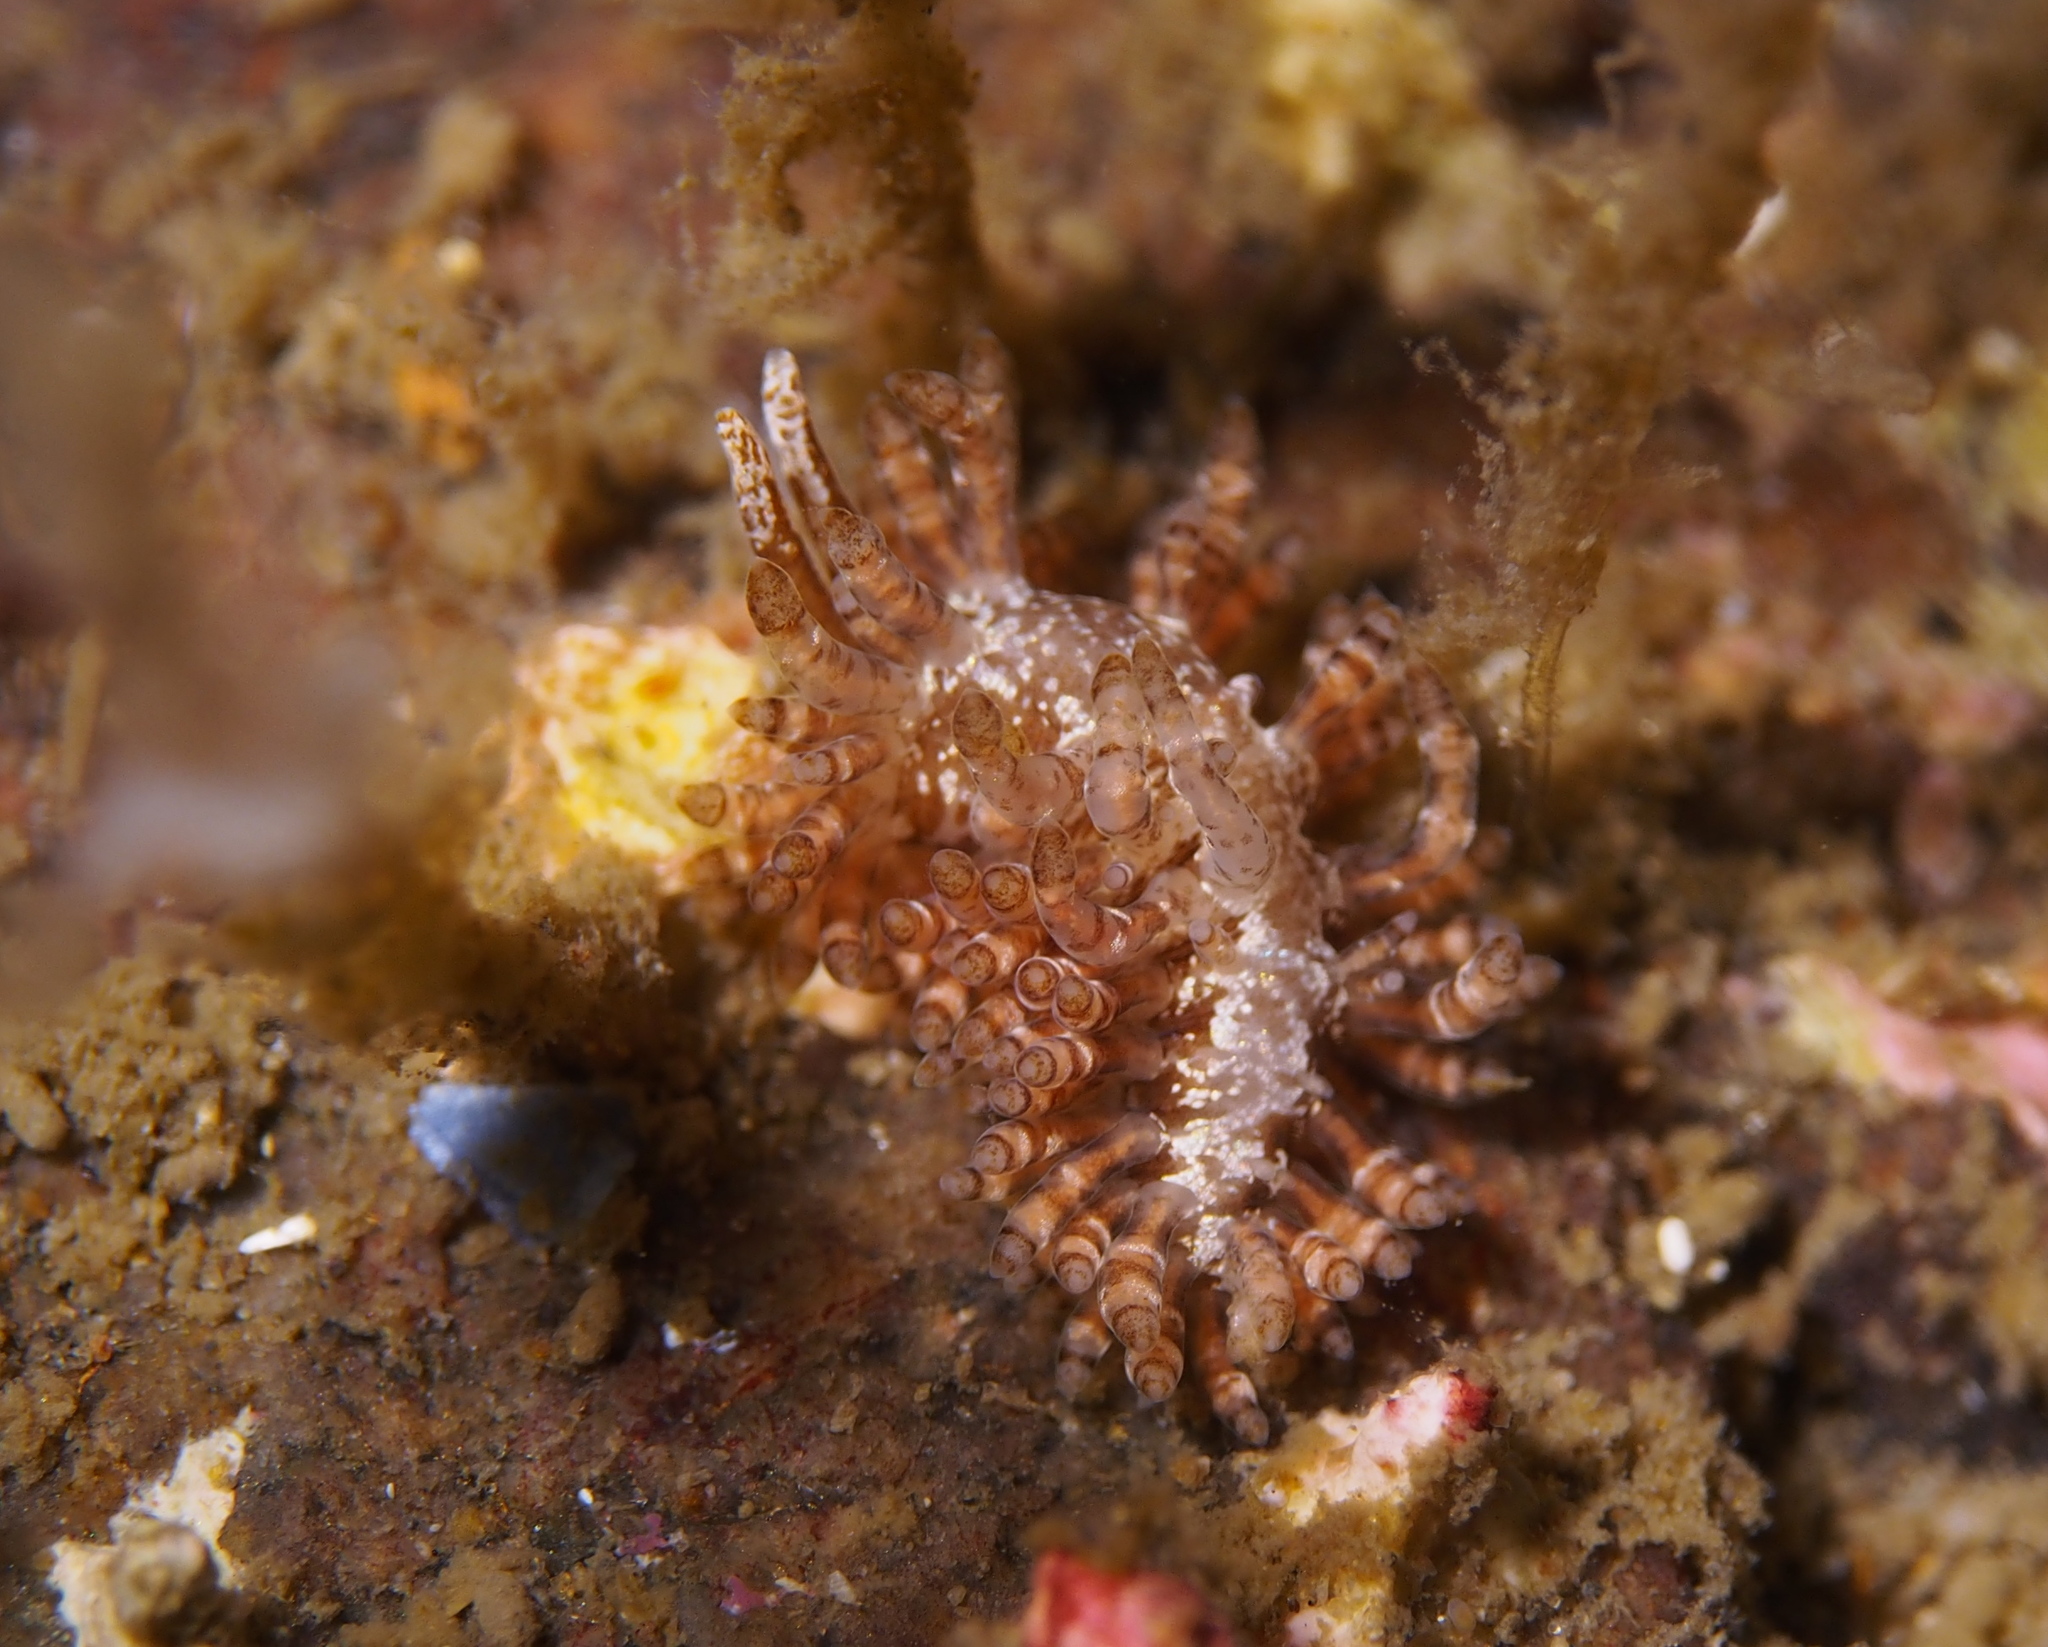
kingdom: Animalia
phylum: Mollusca
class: Gastropoda
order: Nudibranchia
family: Eubranchidae
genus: Eubranchus
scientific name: Eubranchus vittatus
